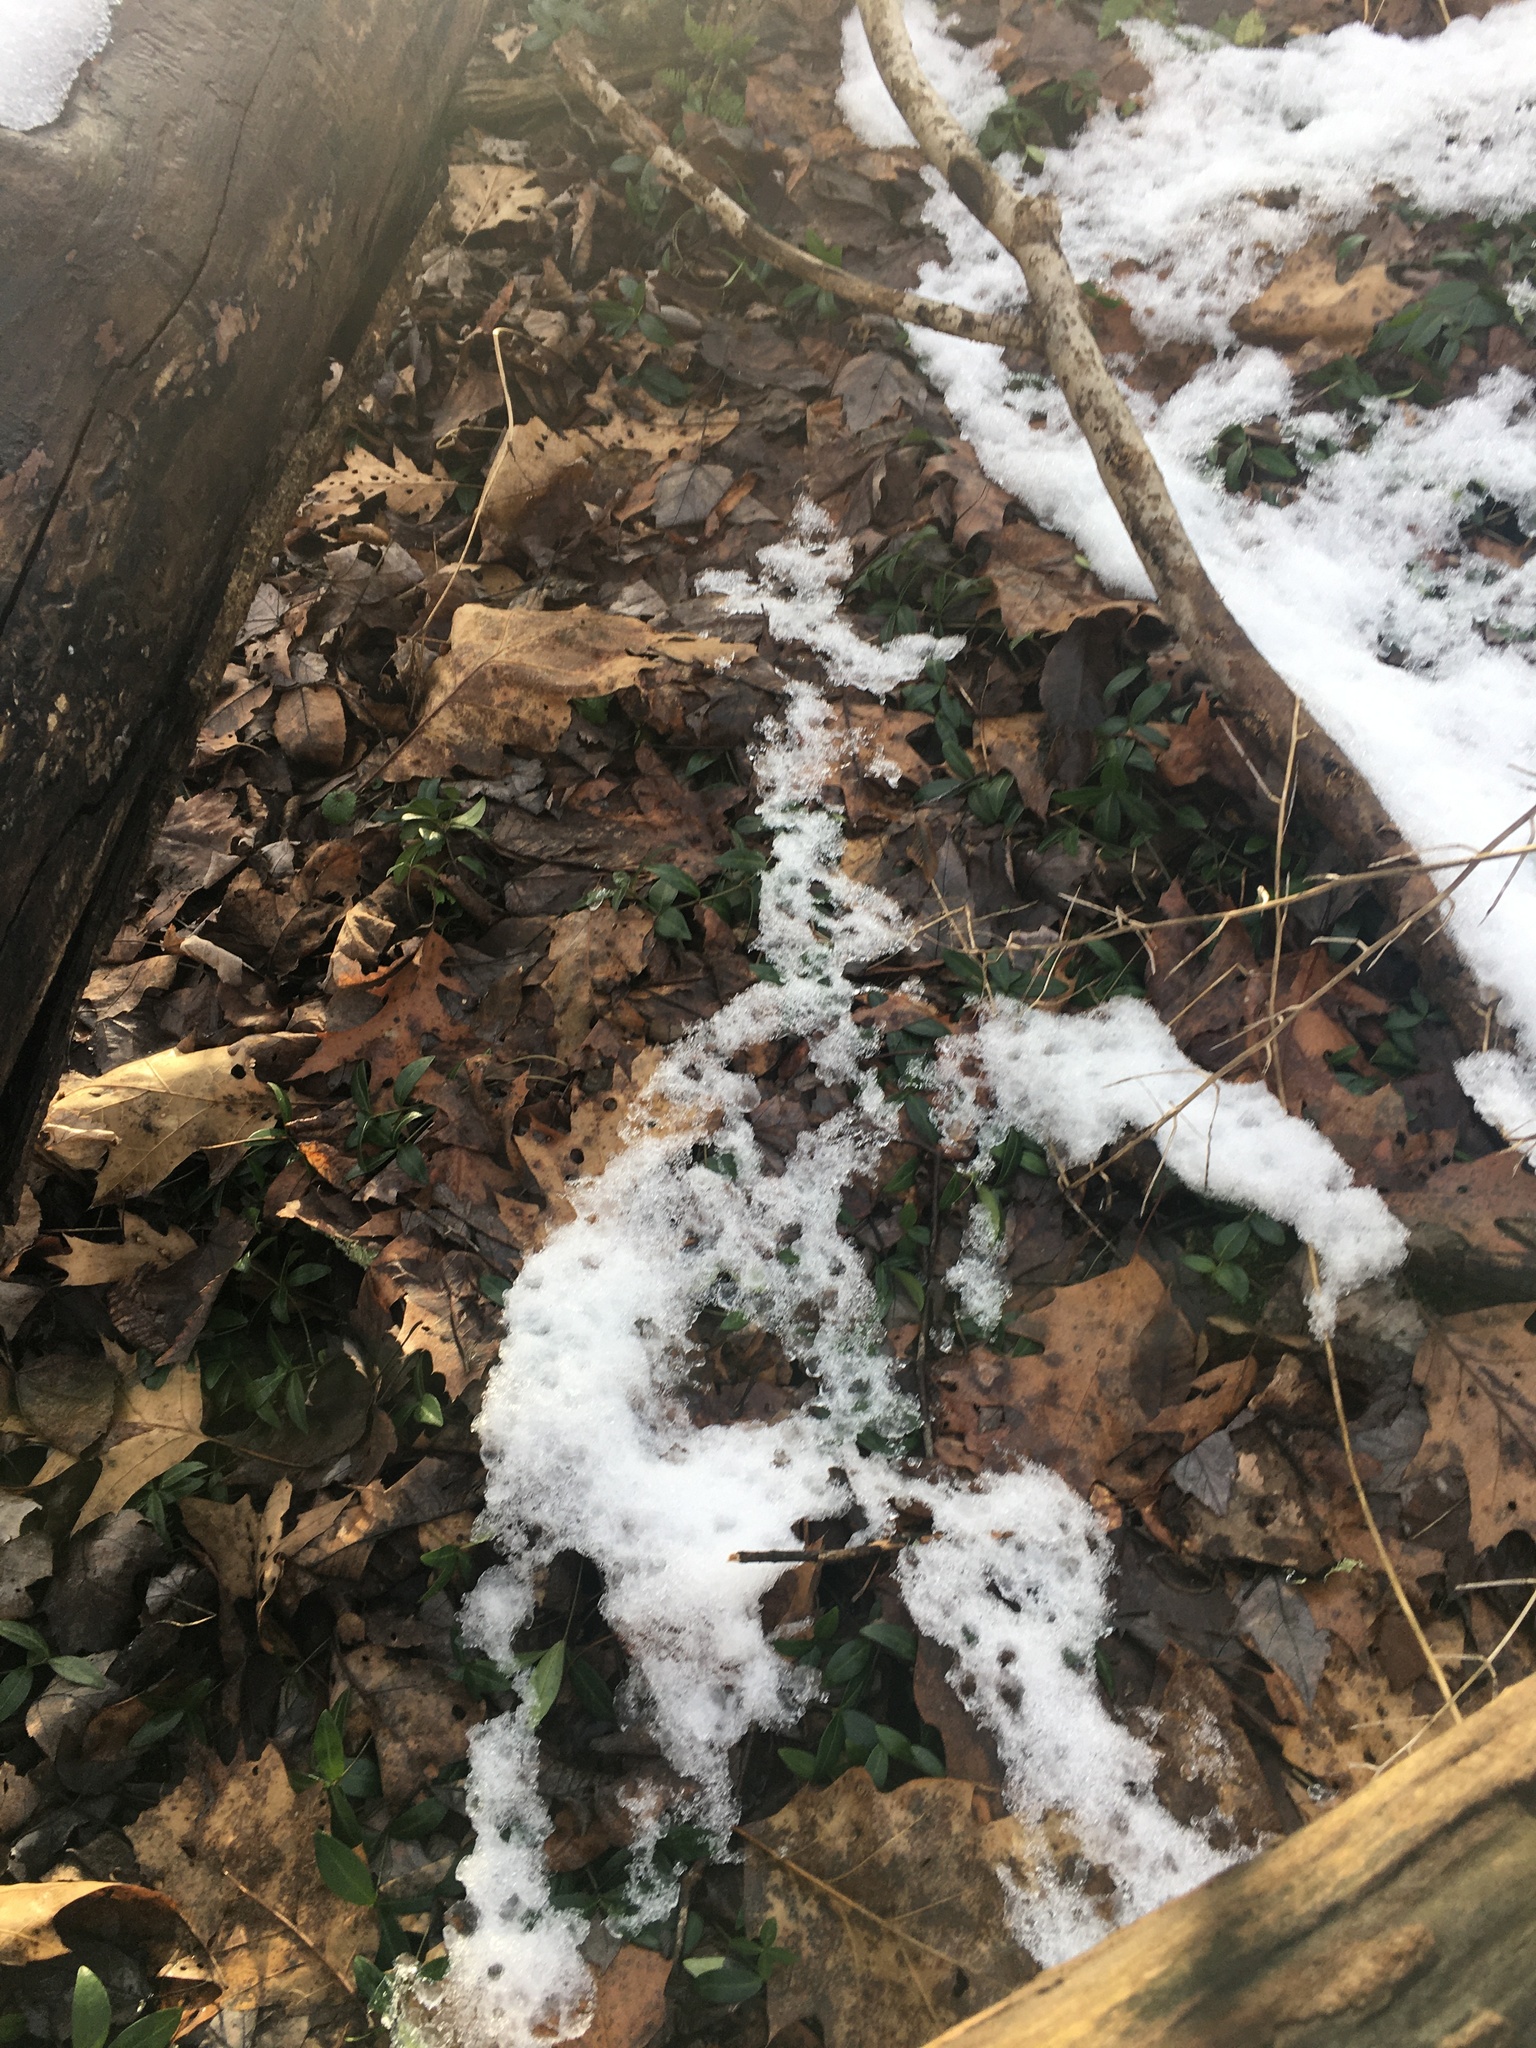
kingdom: Plantae
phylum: Tracheophyta
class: Magnoliopsida
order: Gentianales
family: Apocynaceae
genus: Vinca
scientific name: Vinca minor
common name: Lesser periwinkle
